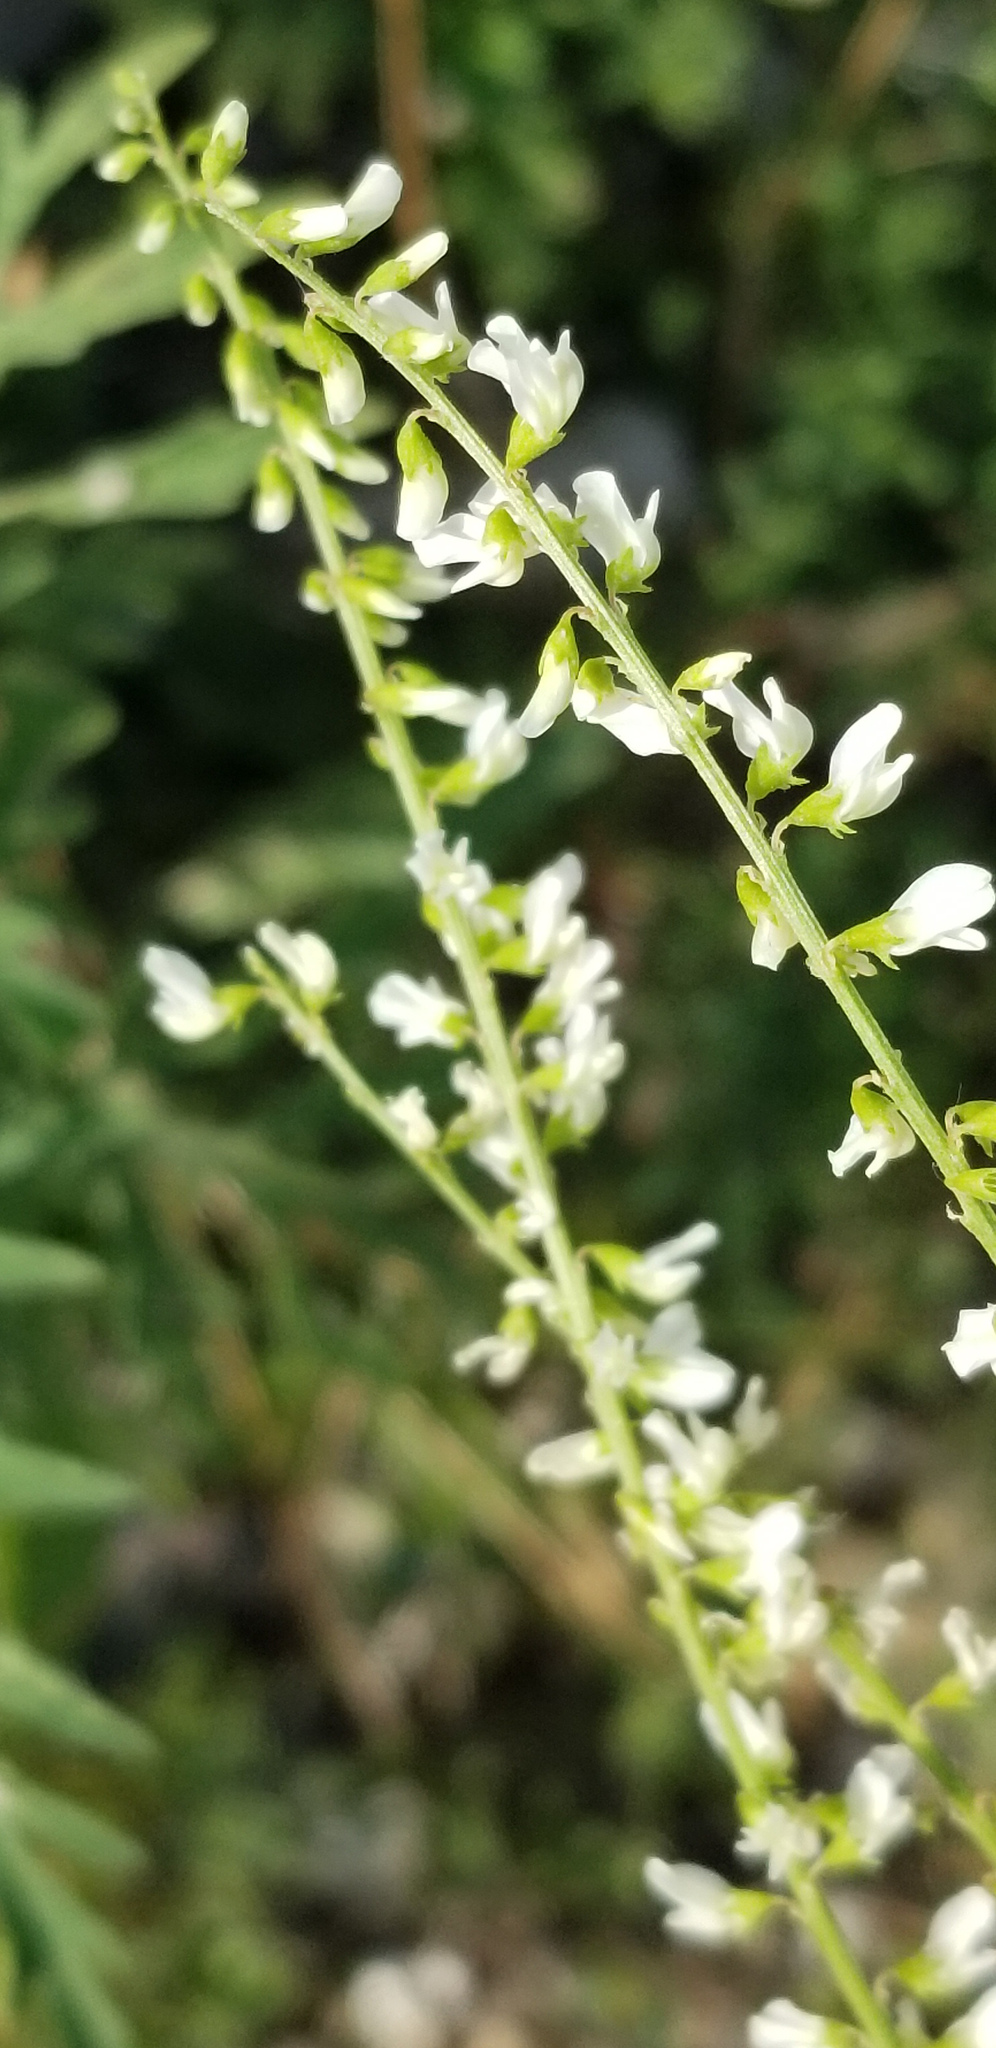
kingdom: Plantae
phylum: Tracheophyta
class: Magnoliopsida
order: Fabales
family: Fabaceae
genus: Melilotus
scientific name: Melilotus albus
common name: White melilot
